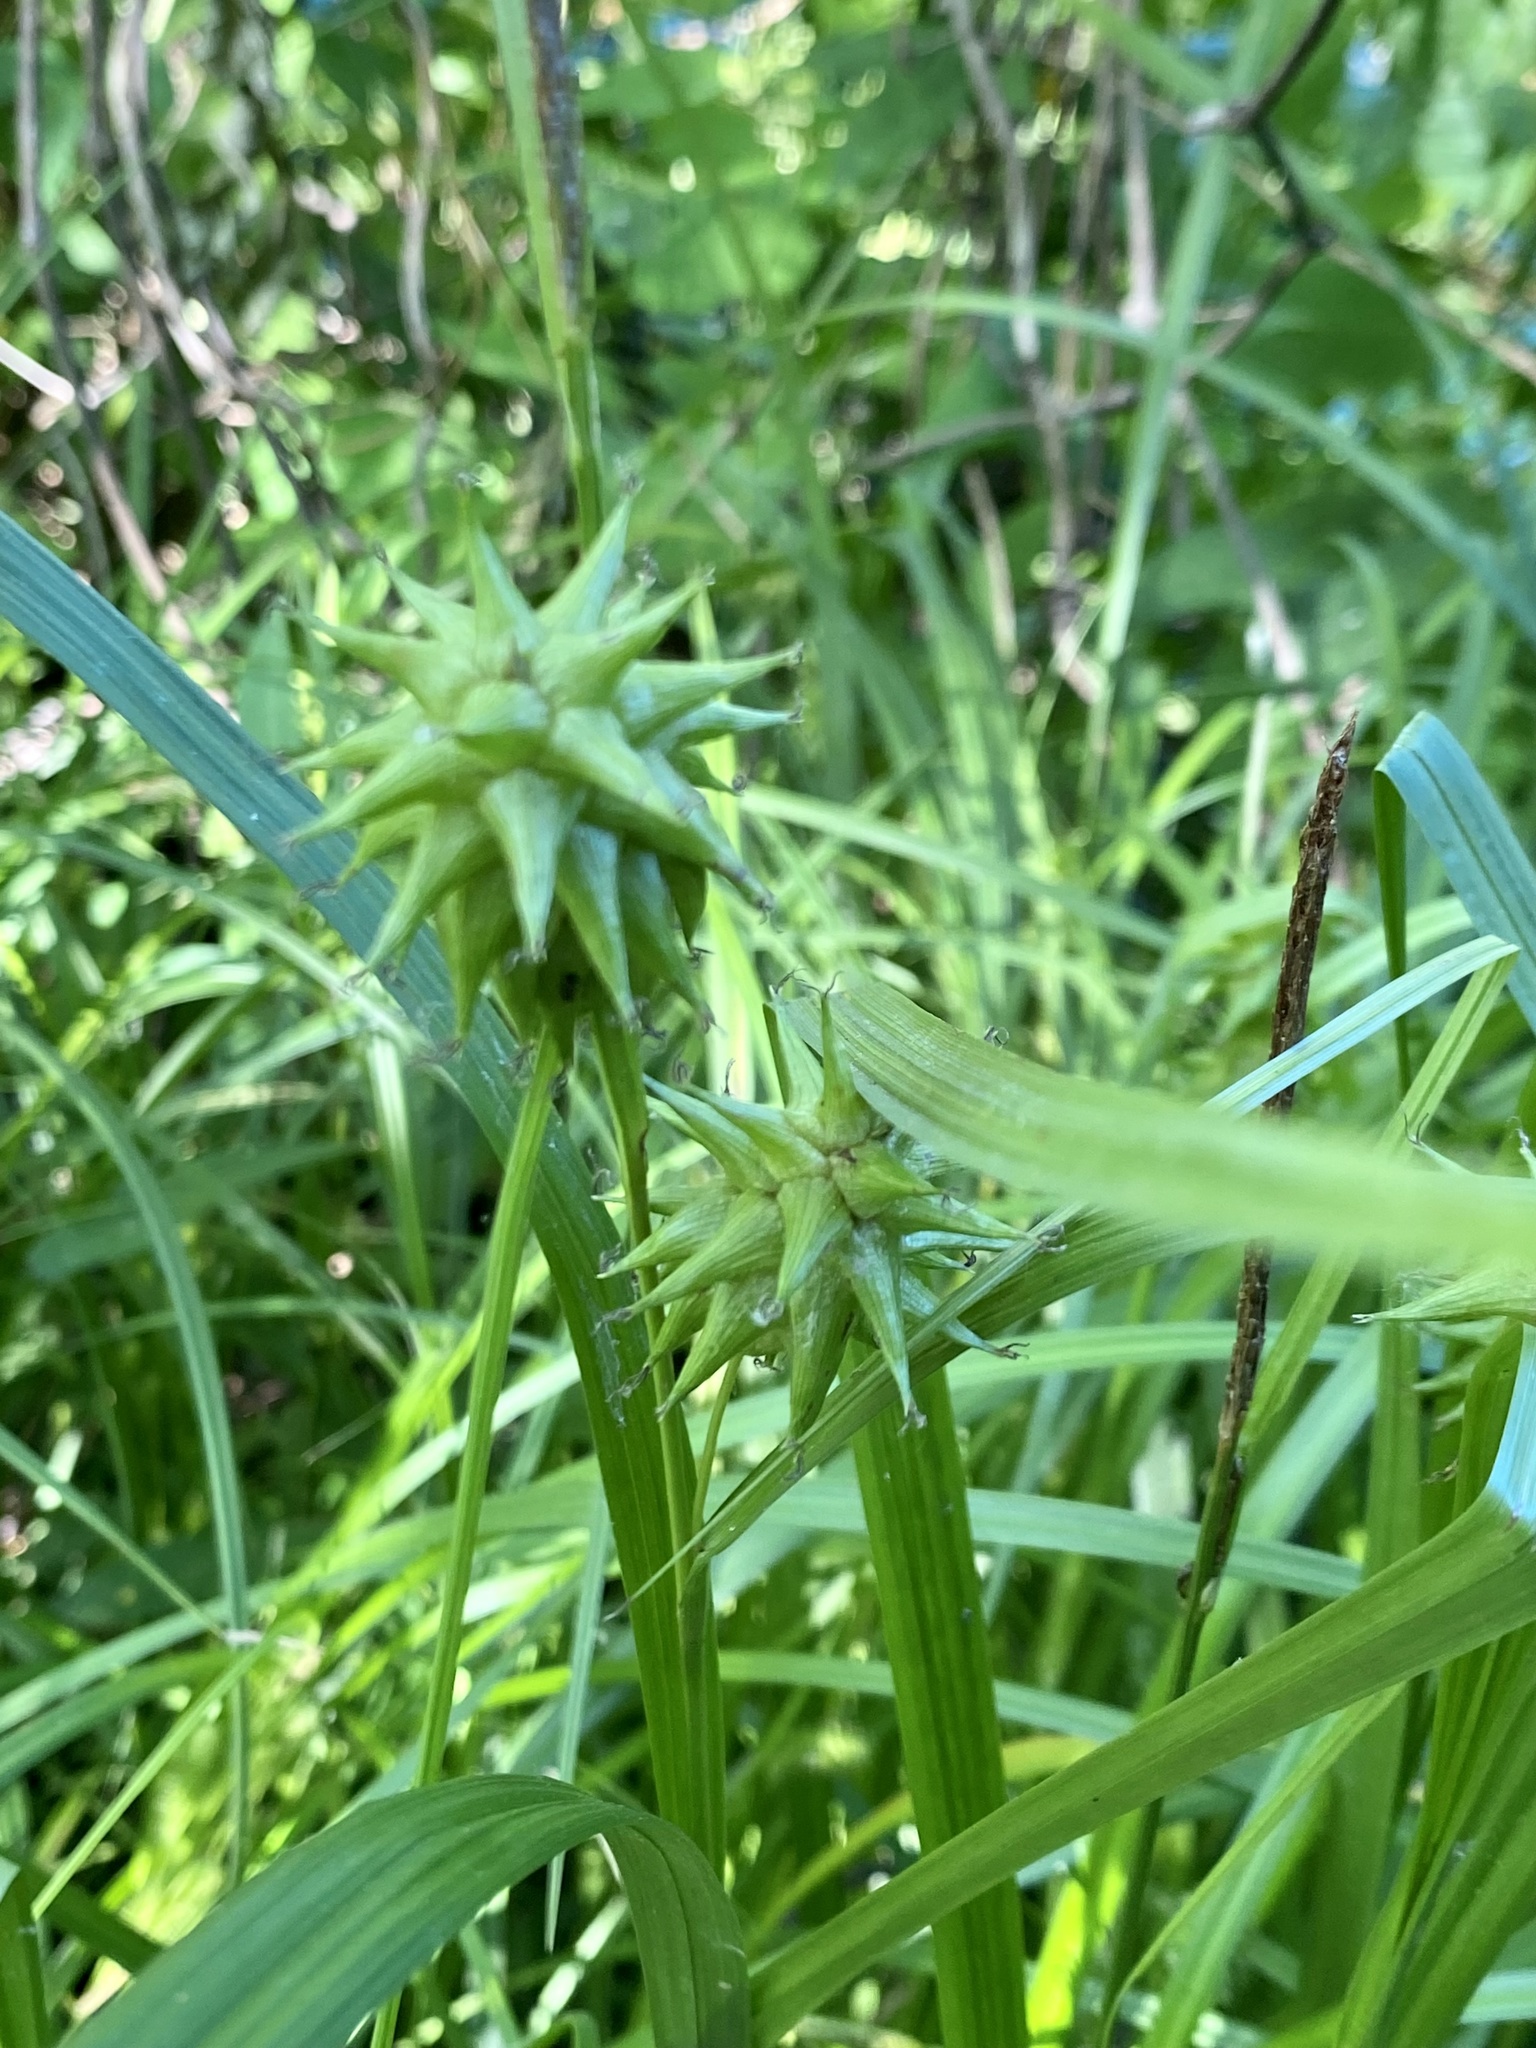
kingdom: Plantae
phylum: Tracheophyta
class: Liliopsida
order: Poales
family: Cyperaceae
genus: Carex
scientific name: Carex grayi
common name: Asa gray's sedge
